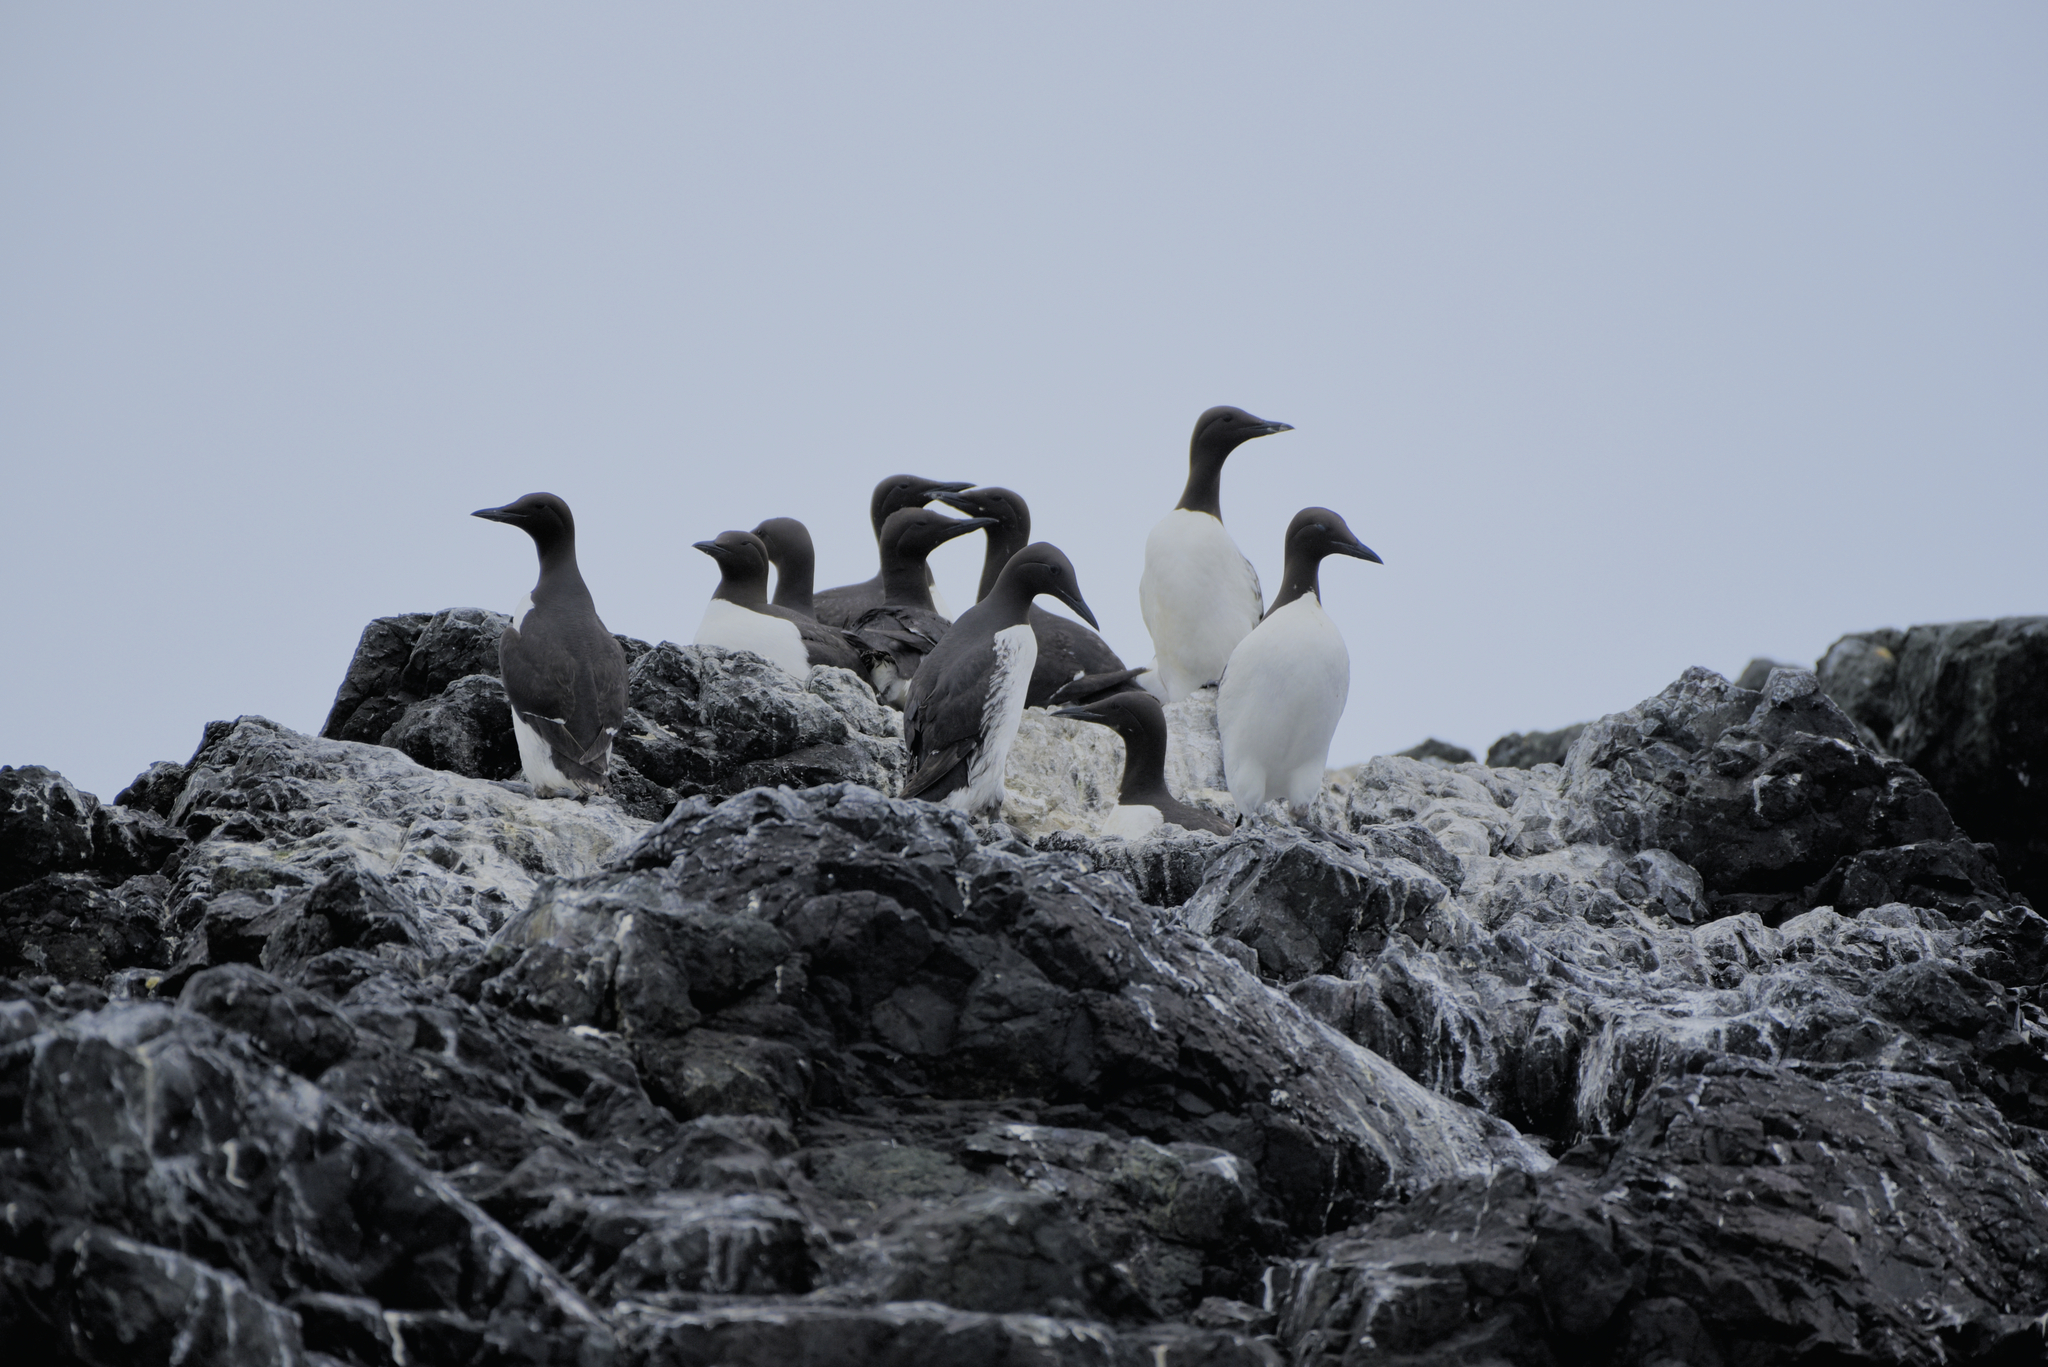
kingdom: Animalia
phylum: Chordata
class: Aves
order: Charadriiformes
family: Alcidae
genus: Uria
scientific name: Uria aalge
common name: Common murre
